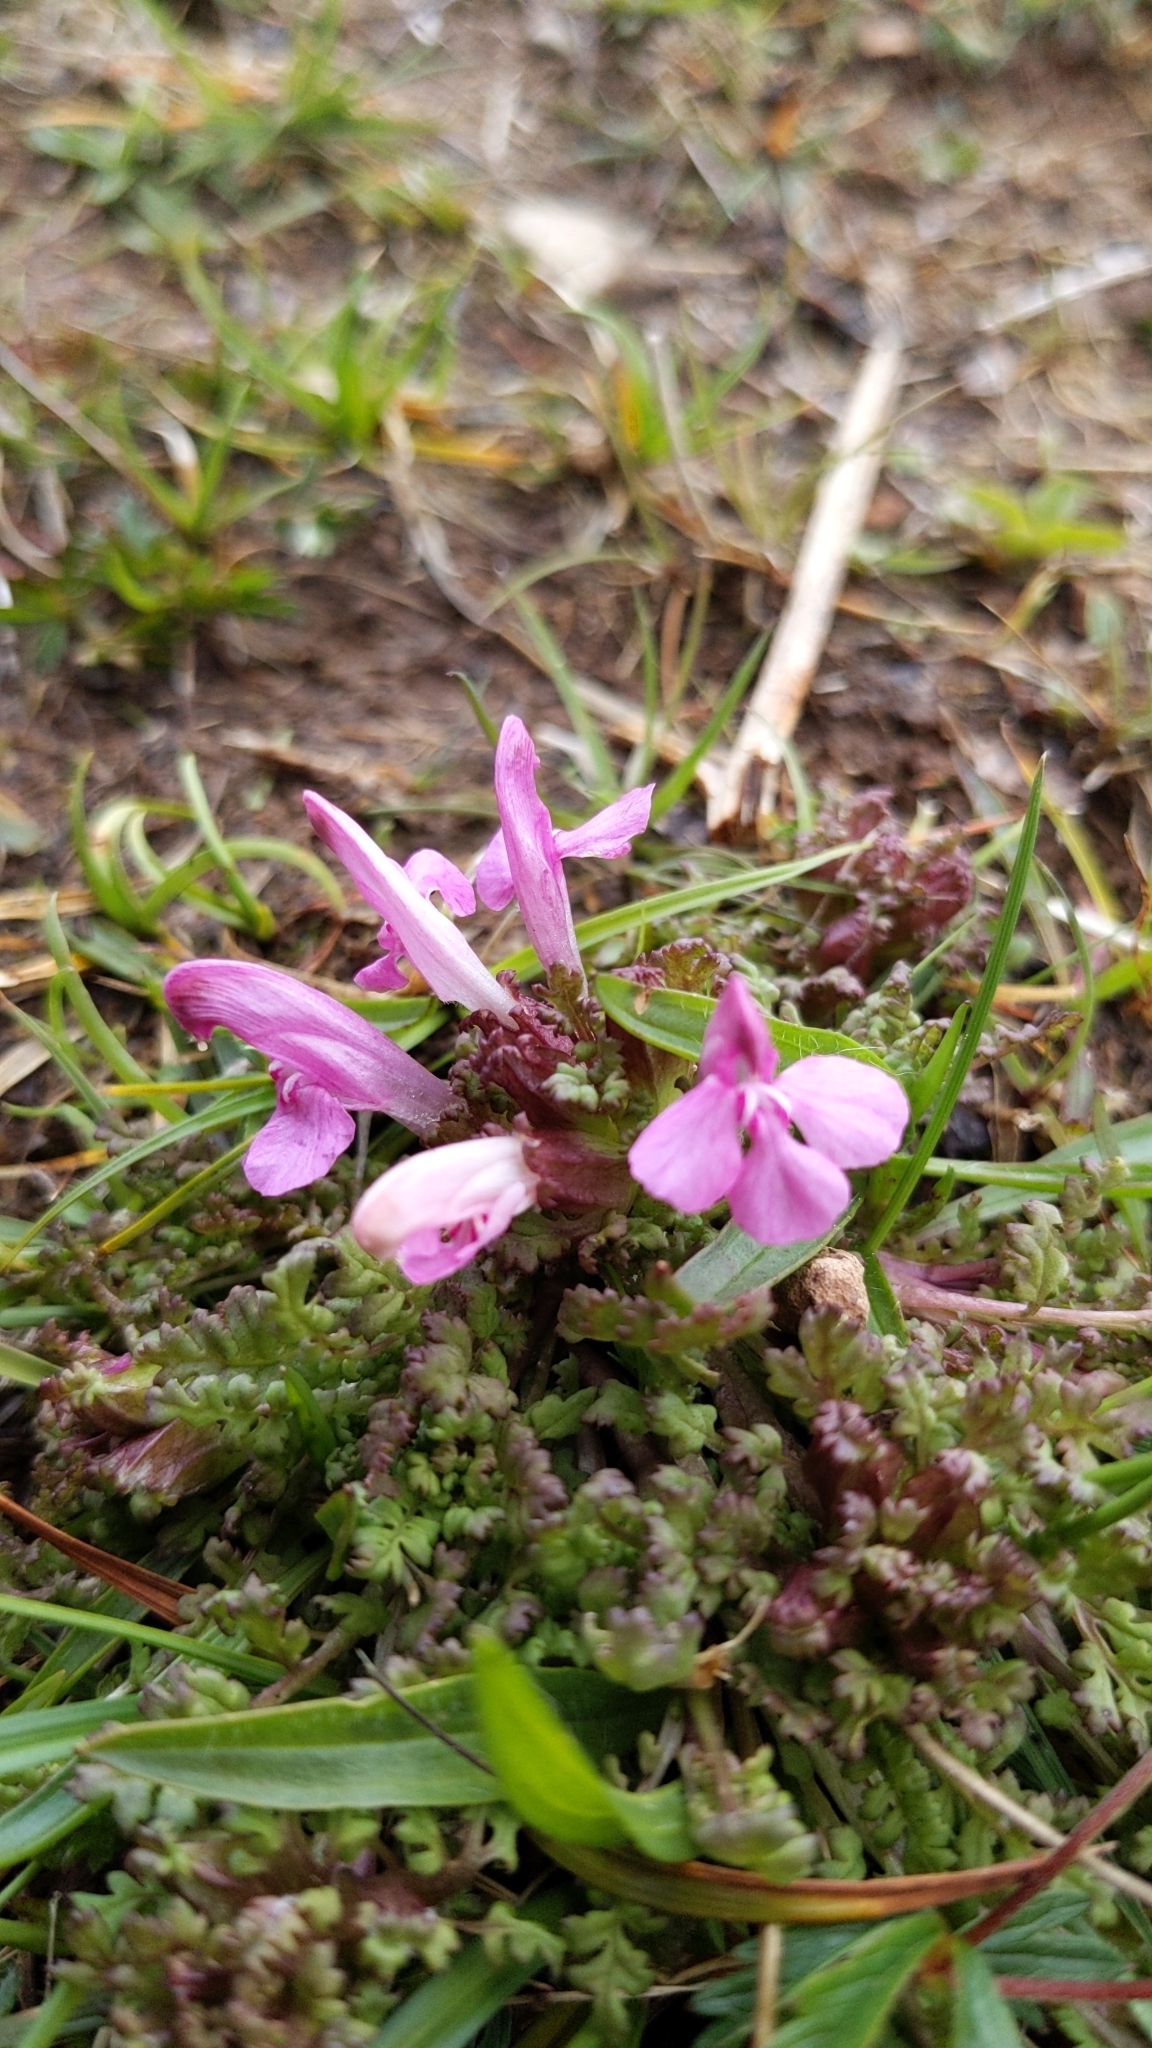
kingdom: Plantae
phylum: Tracheophyta
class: Magnoliopsida
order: Lamiales
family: Orobanchaceae
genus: Pedicularis
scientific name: Pedicularis sylvatica
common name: Lousewort
